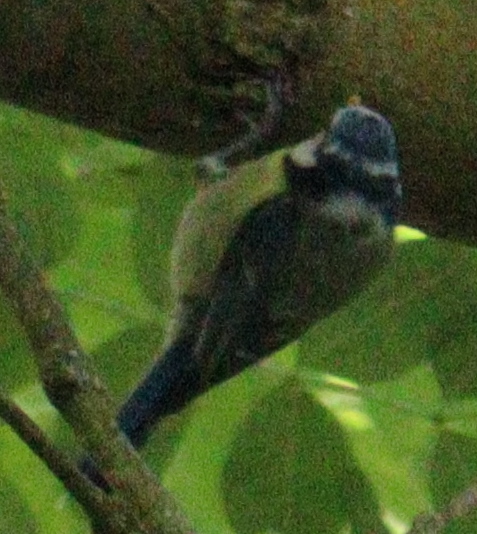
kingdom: Animalia
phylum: Chordata
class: Aves
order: Passeriformes
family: Paridae
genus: Cyanistes
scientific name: Cyanistes caeruleus
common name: Eurasian blue tit
